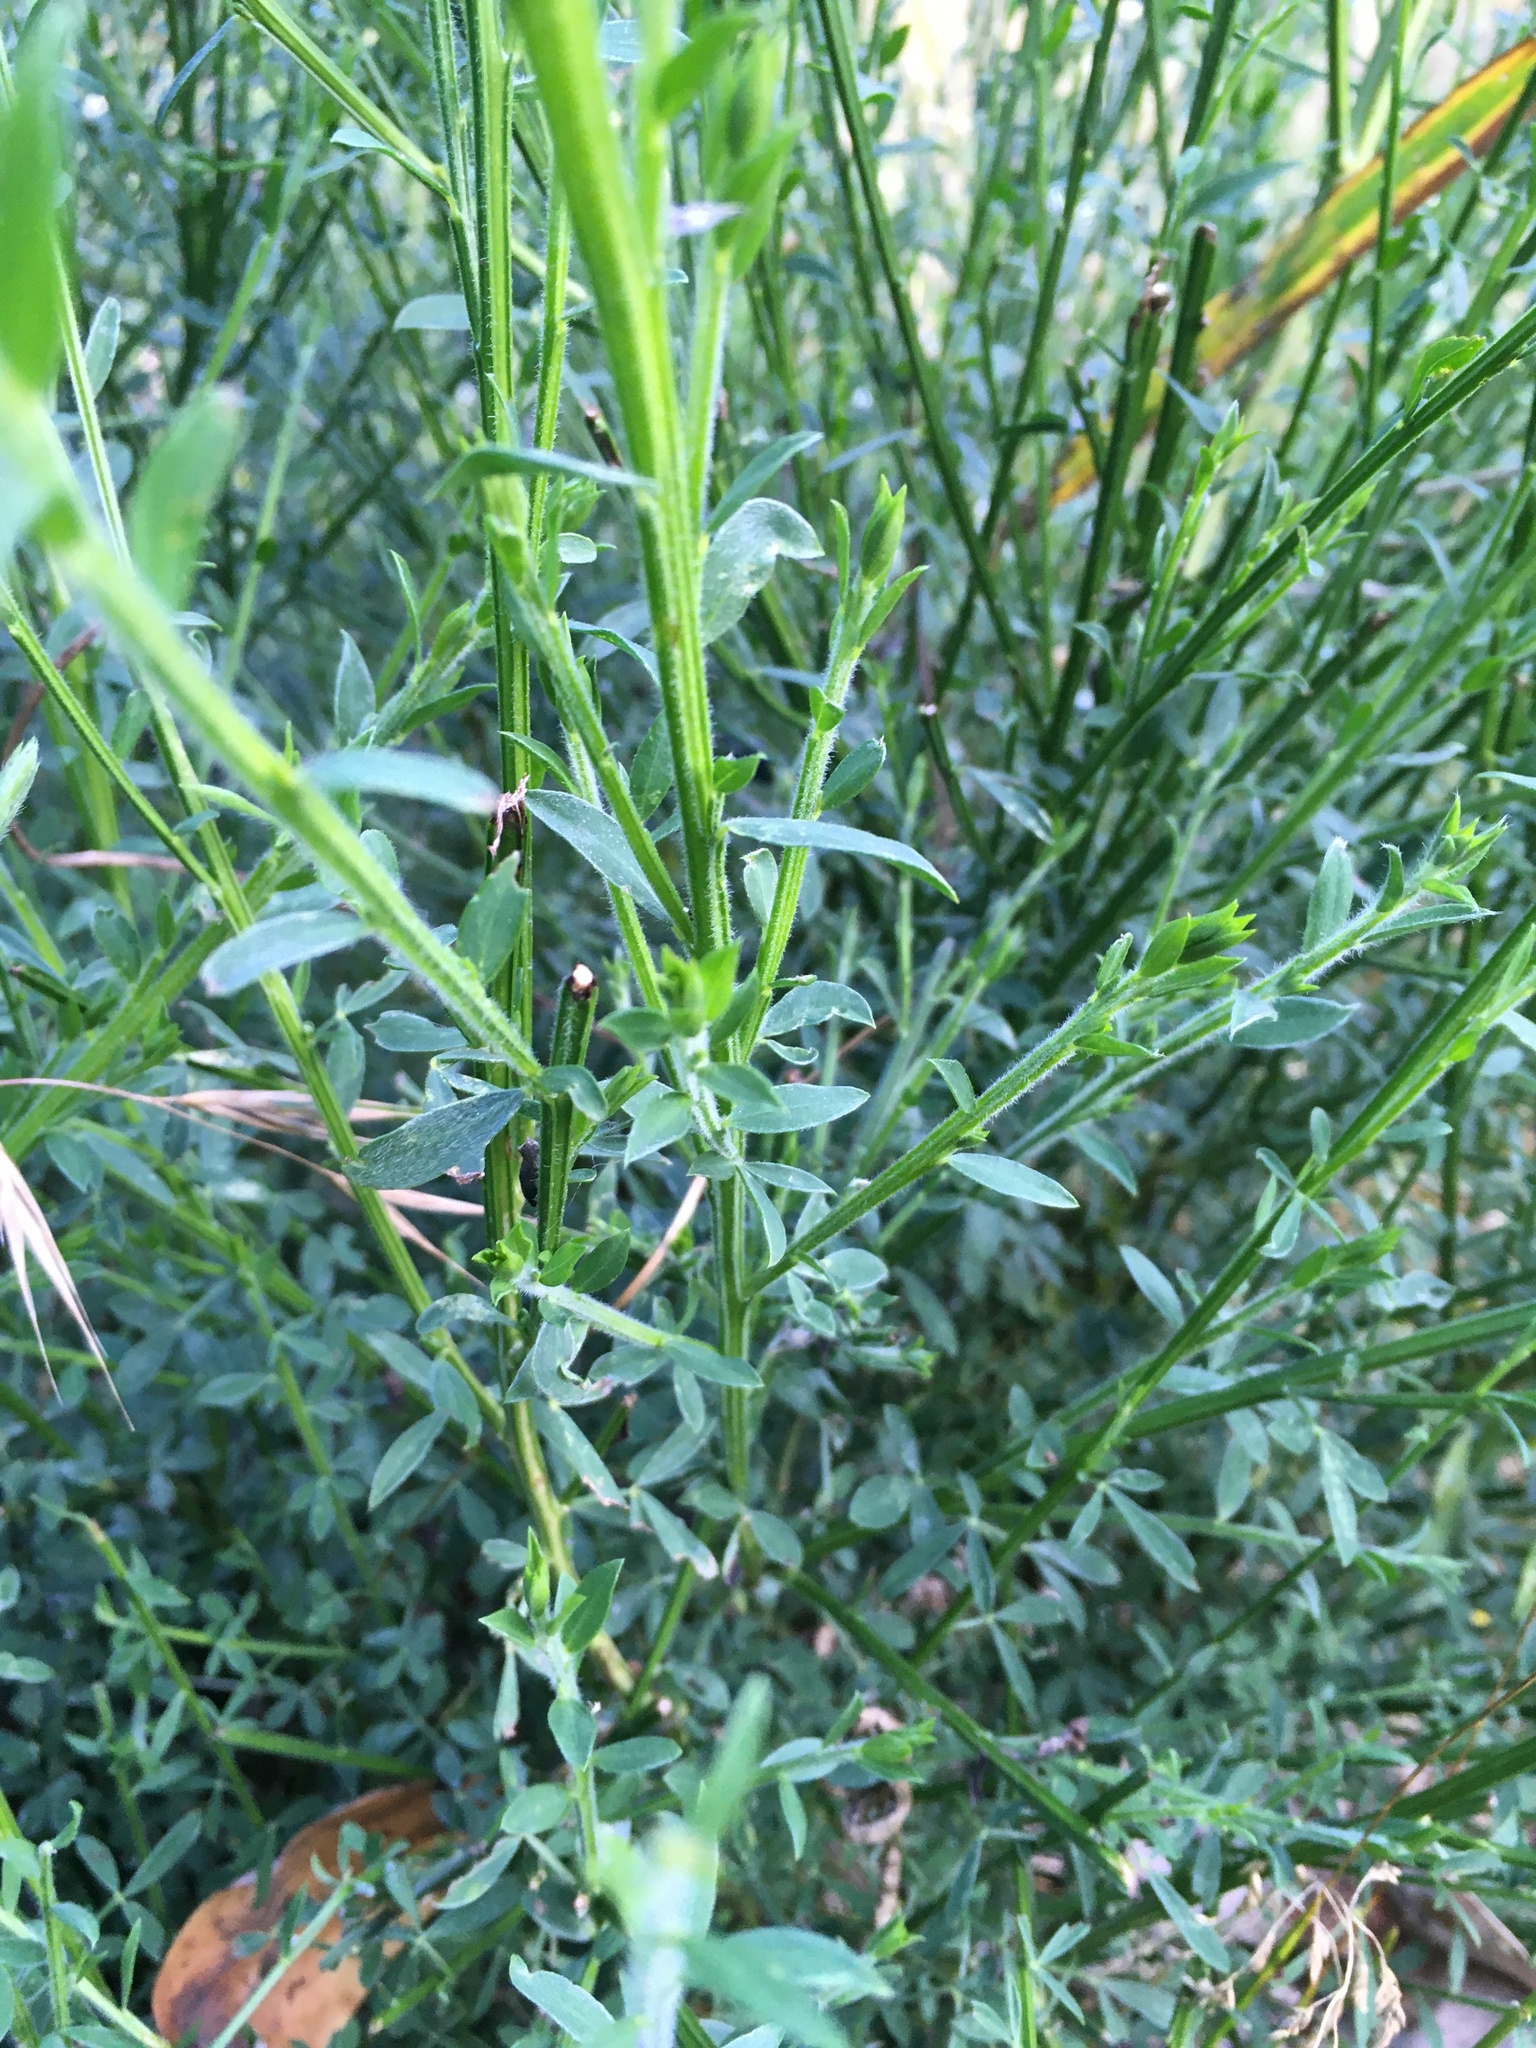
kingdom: Plantae
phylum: Tracheophyta
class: Magnoliopsida
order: Fabales
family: Fabaceae
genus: Cytisus
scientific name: Cytisus scoparius
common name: Scotch broom
